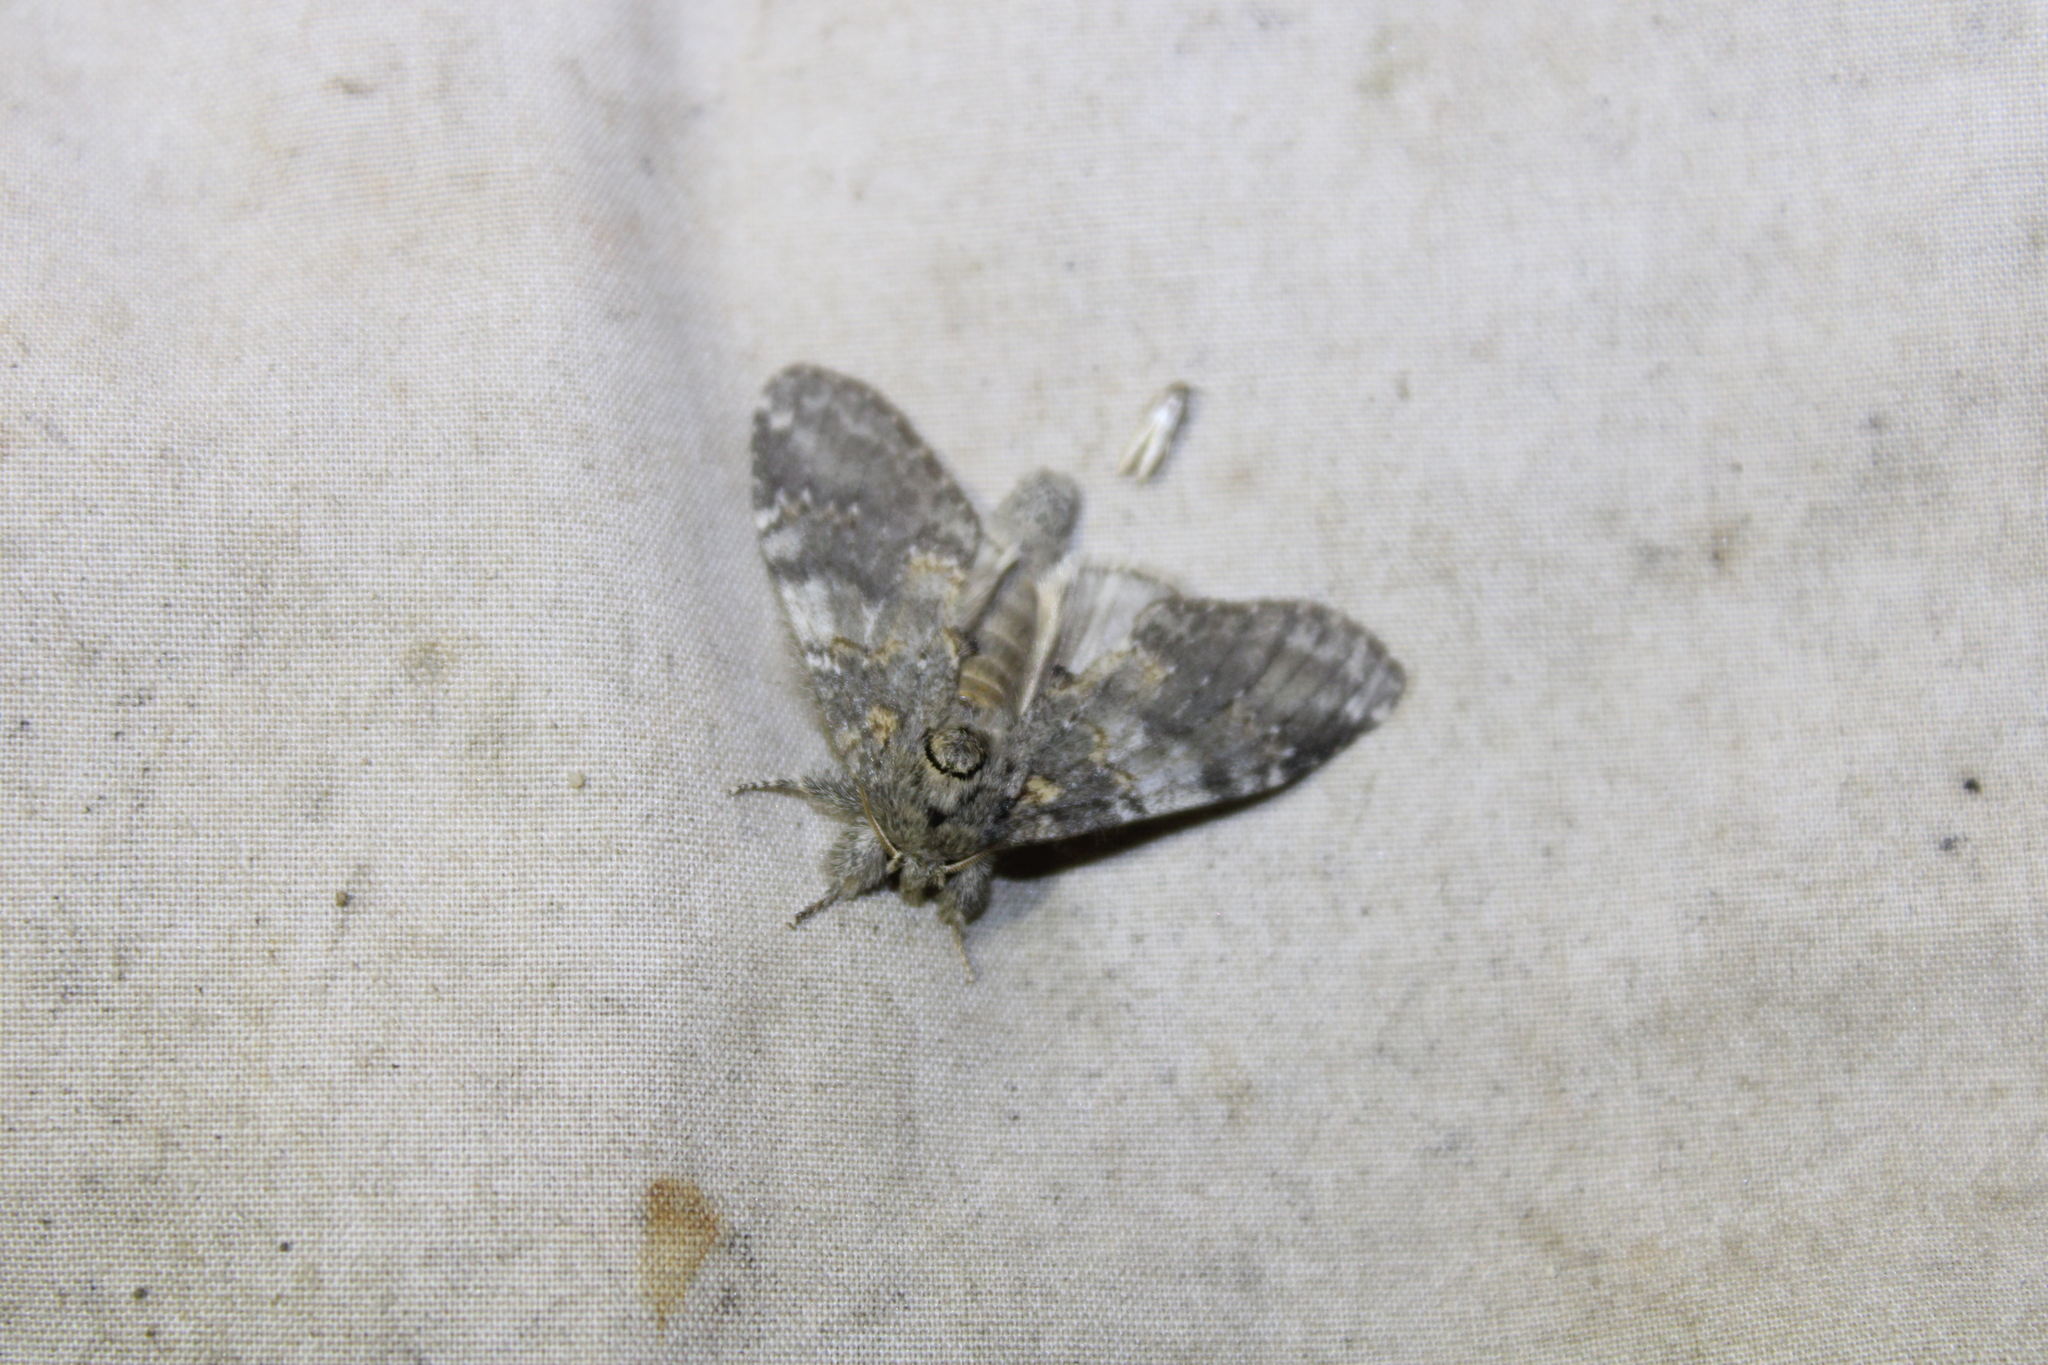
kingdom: Animalia
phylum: Arthropoda
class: Insecta
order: Lepidoptera
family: Notodontidae
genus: Peridea
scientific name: Peridea angulosa
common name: Angulose prominent
